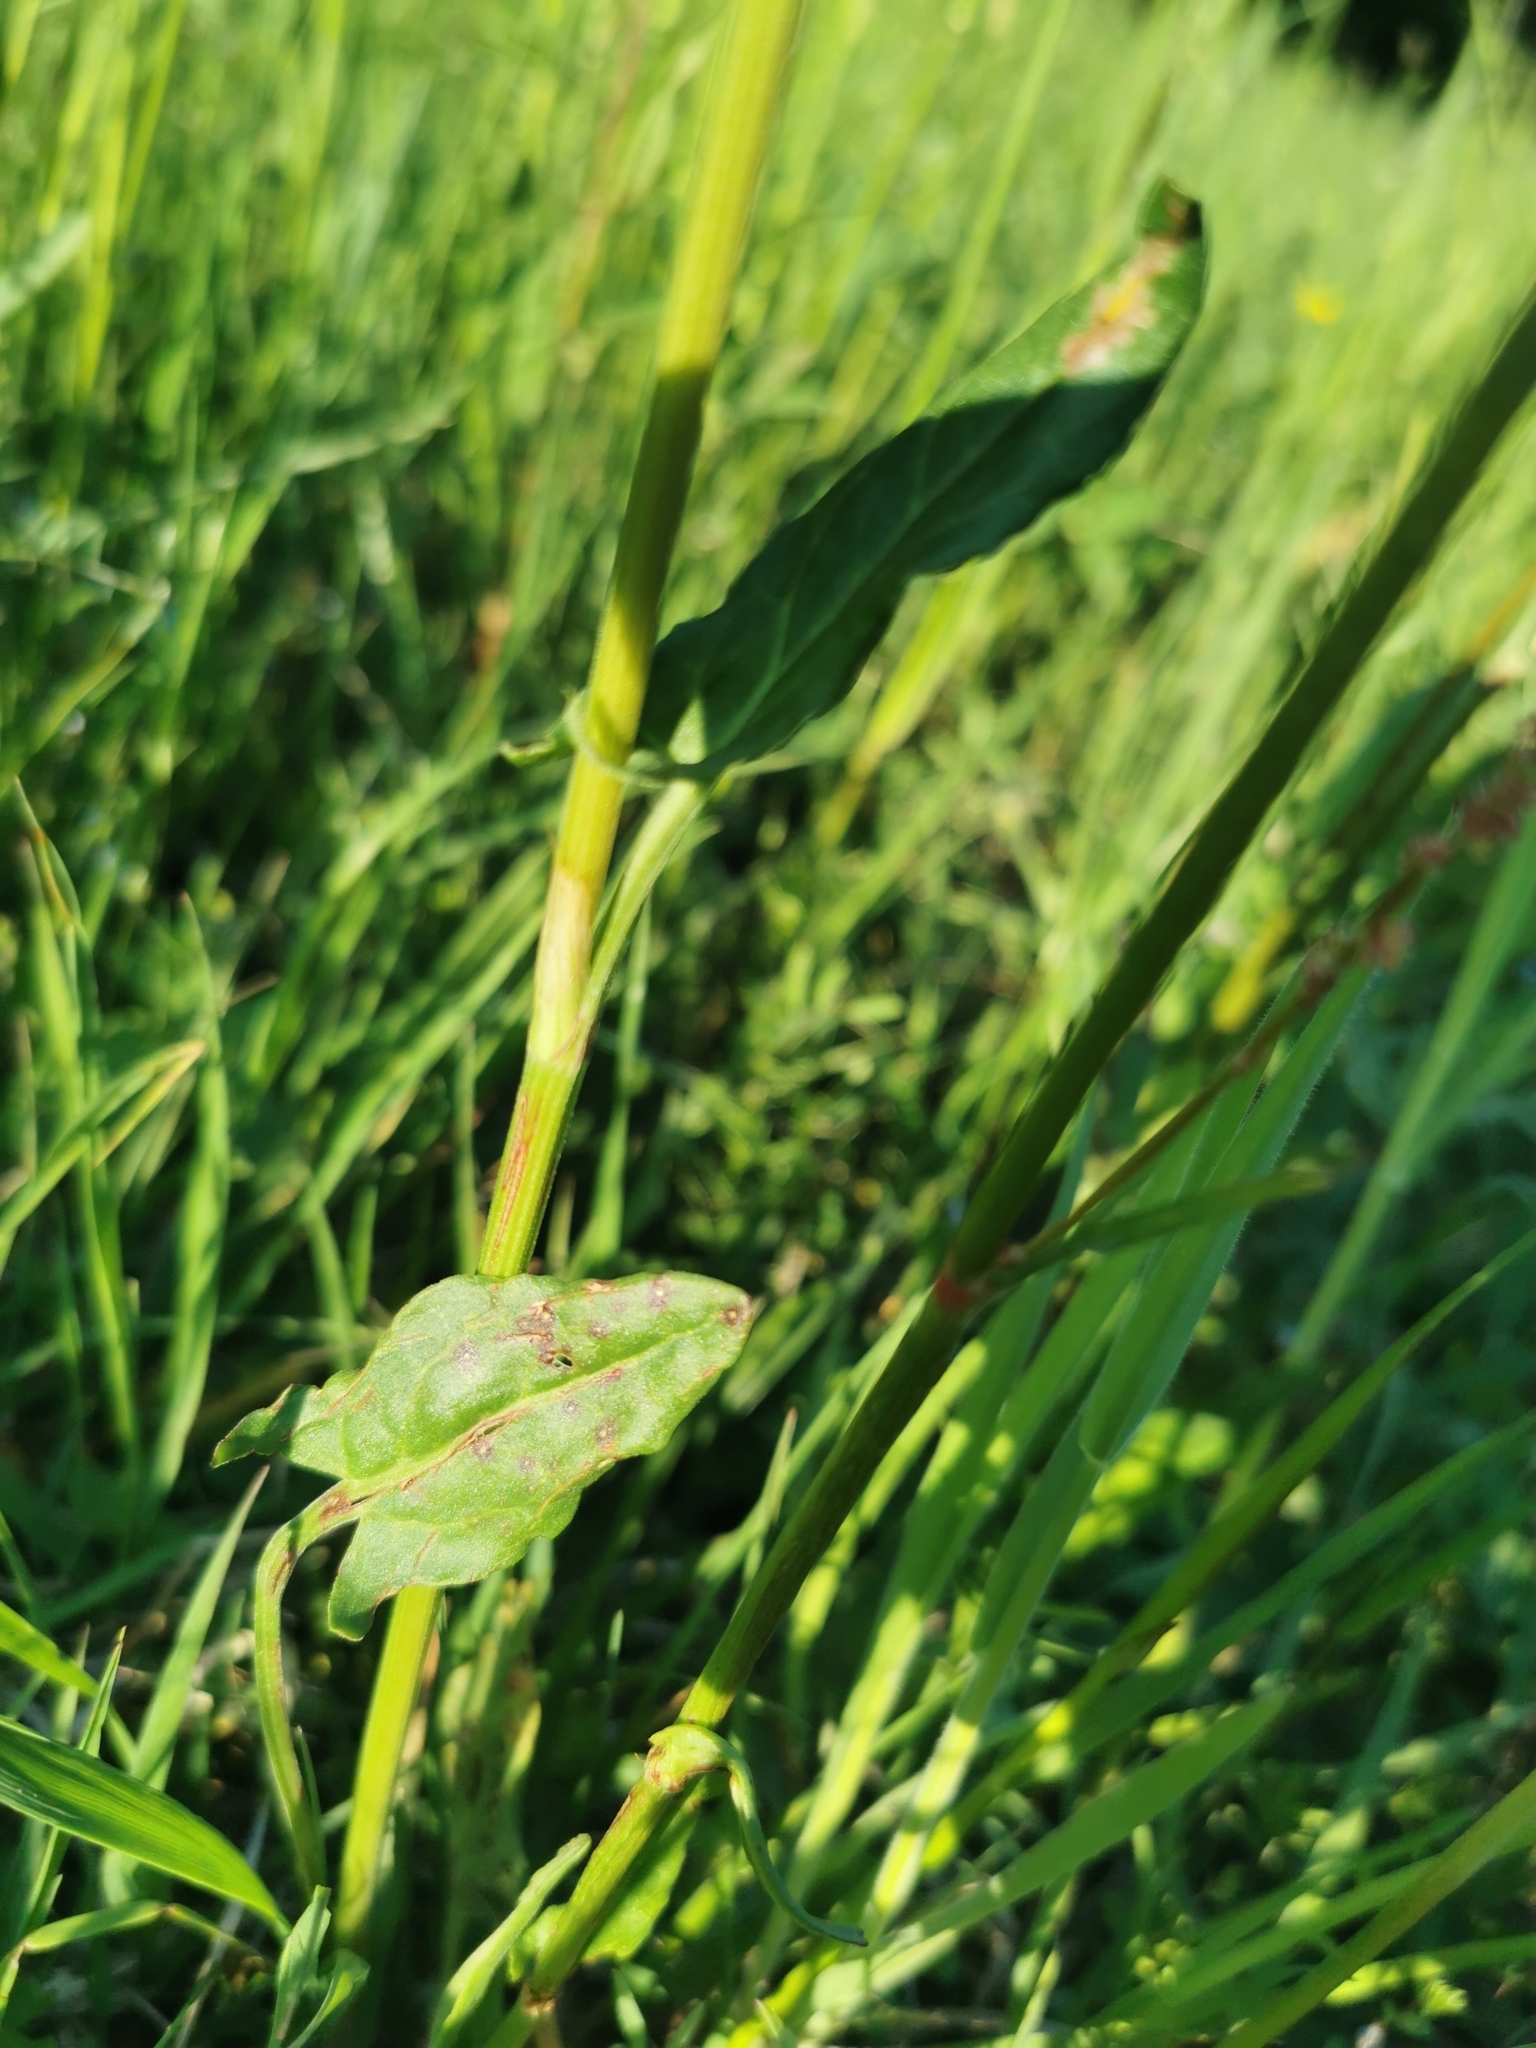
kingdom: Plantae
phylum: Tracheophyta
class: Magnoliopsida
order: Caryophyllales
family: Polygonaceae
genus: Rumex
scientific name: Rumex acetosa
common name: Garden sorrel
